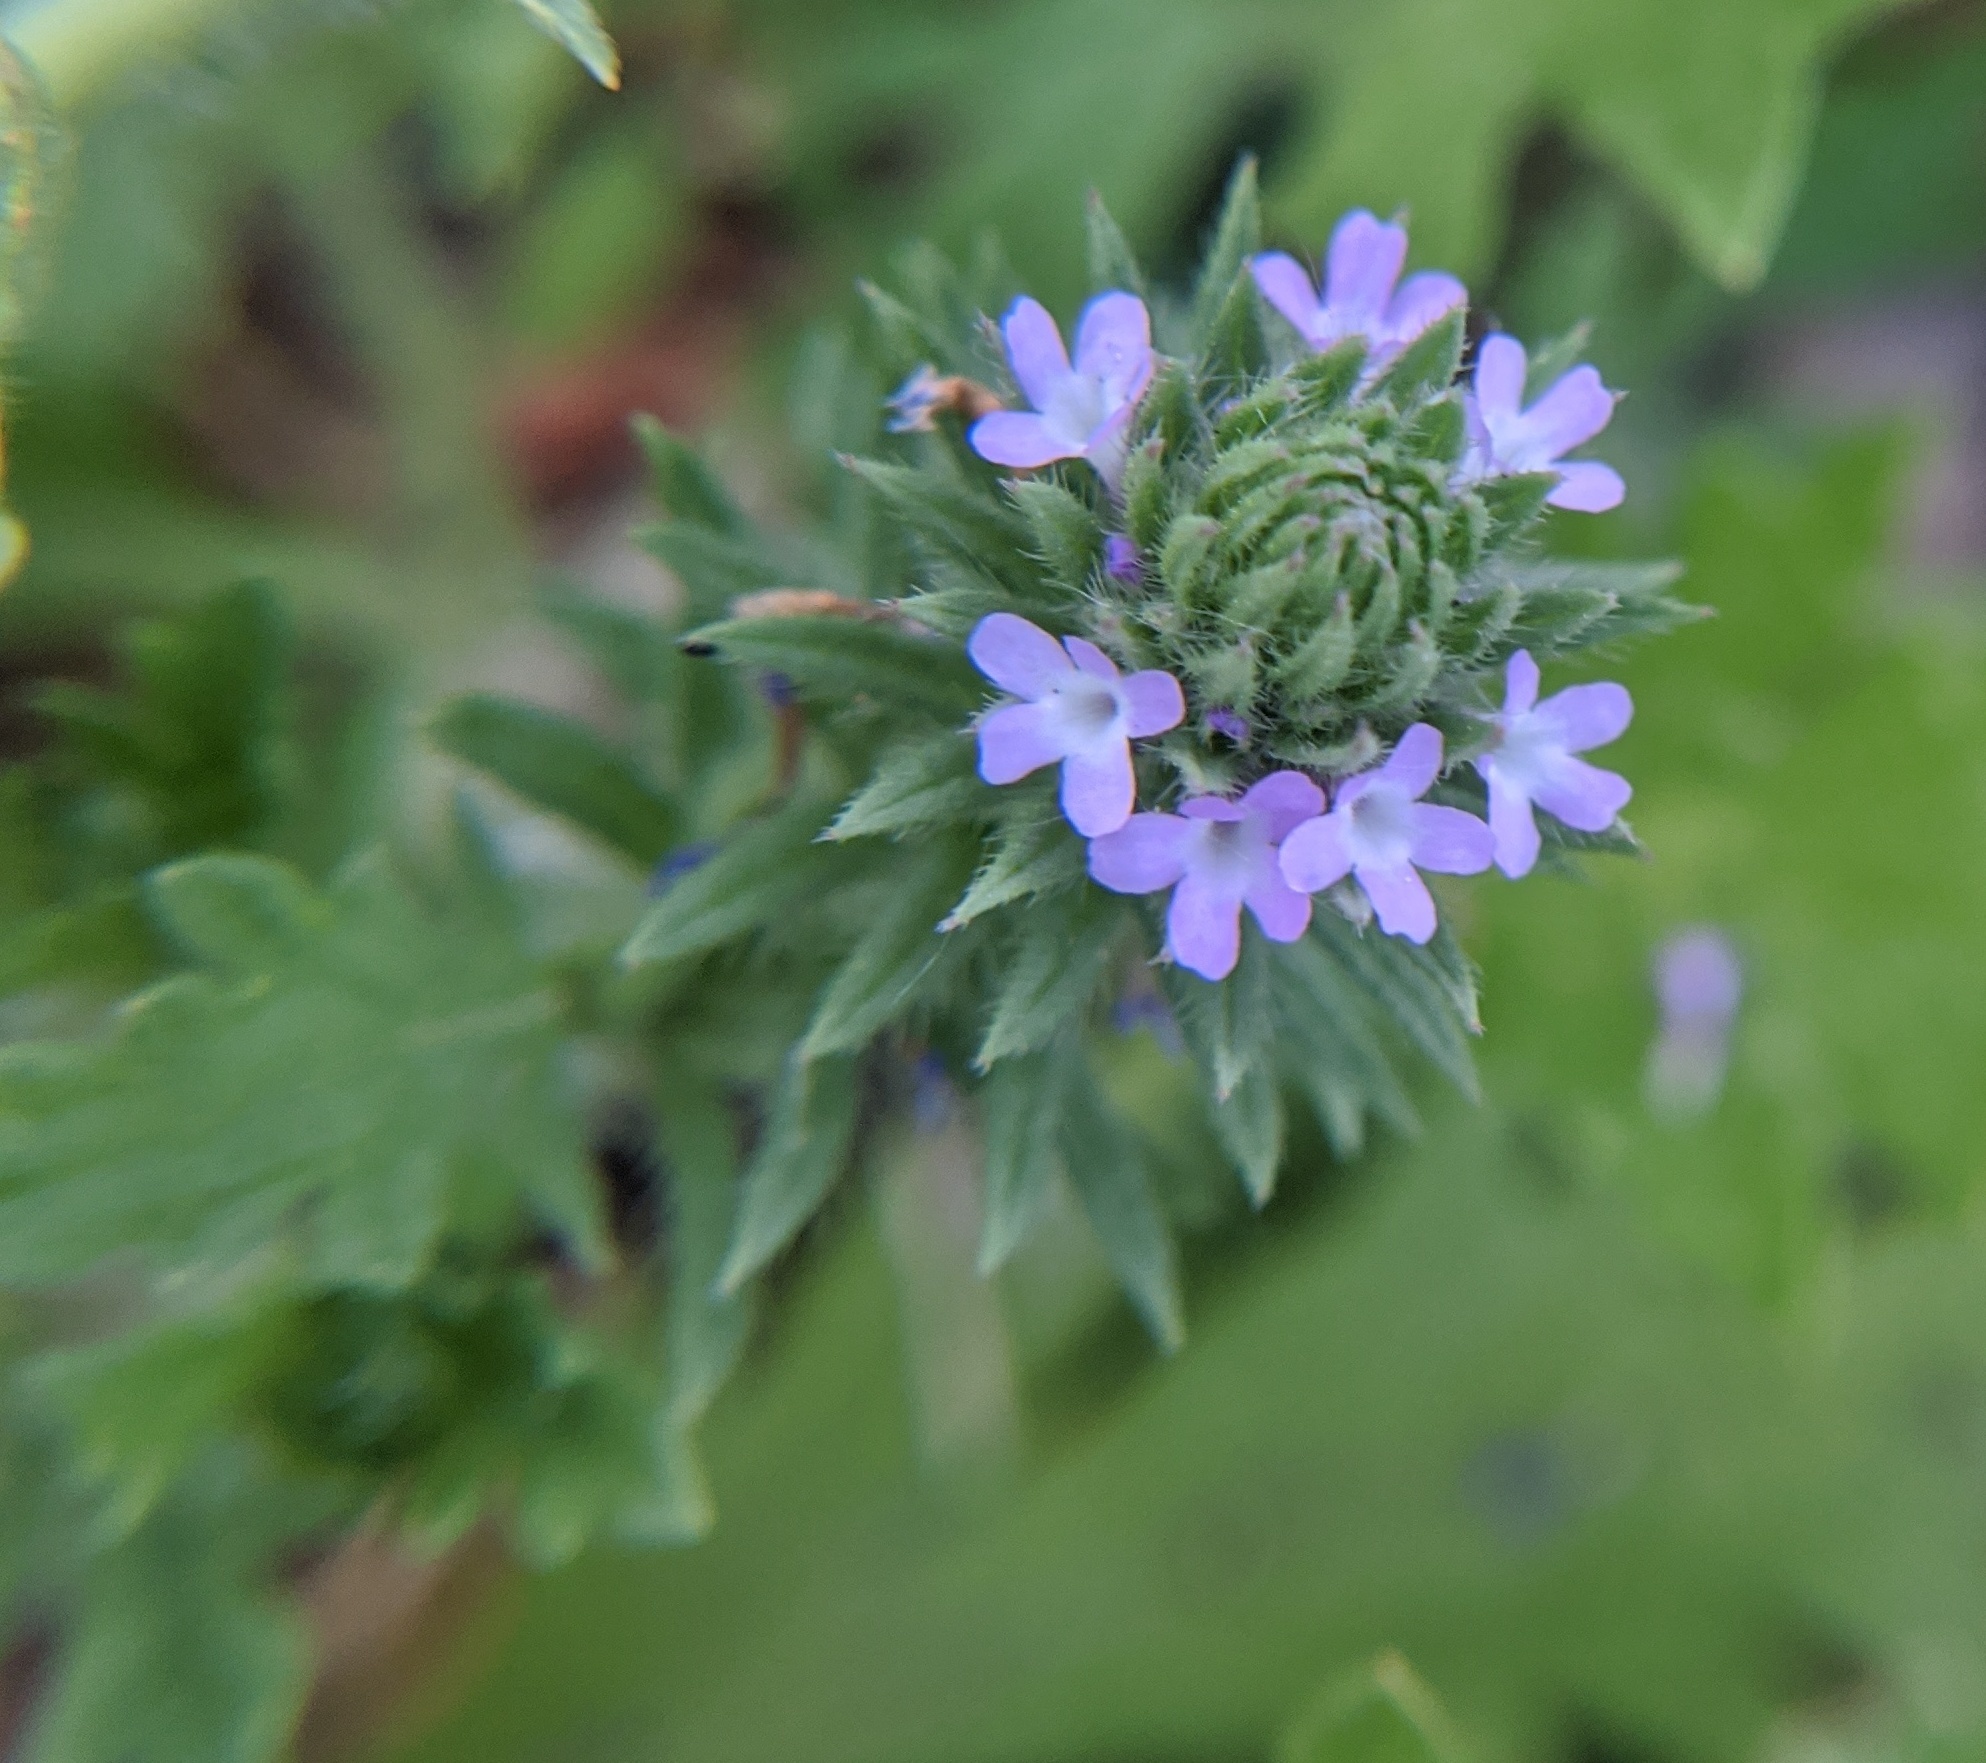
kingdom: Plantae
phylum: Tracheophyta
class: Magnoliopsida
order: Lamiales
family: Verbenaceae
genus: Verbena
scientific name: Verbena bracteata
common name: Bracted vervain
